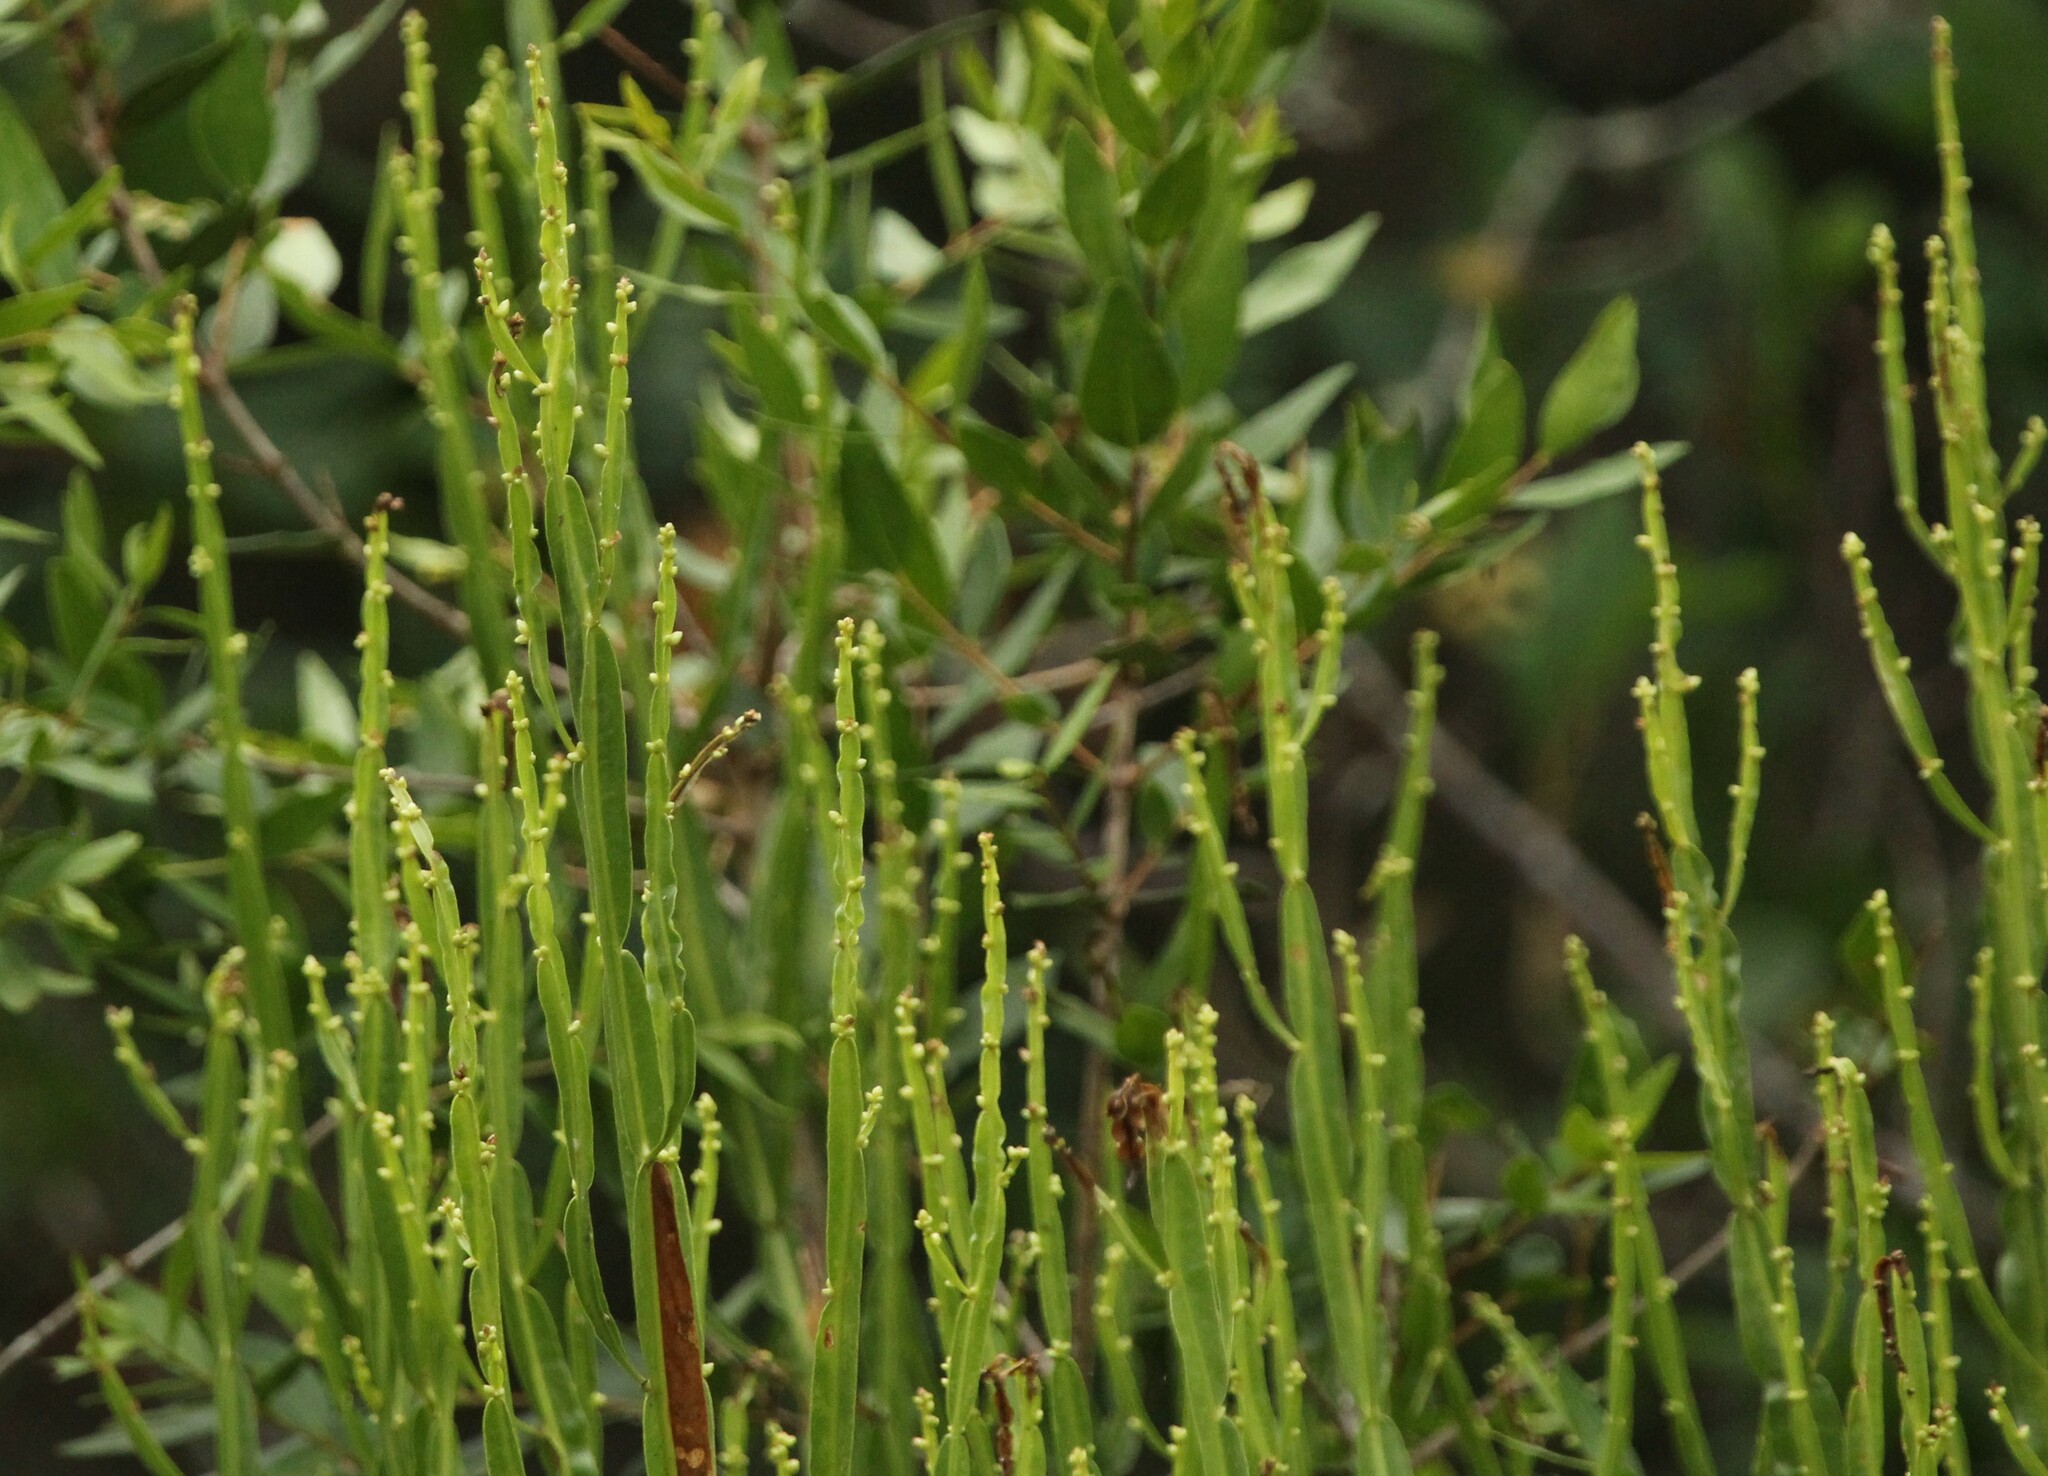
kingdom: Plantae
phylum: Tracheophyta
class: Magnoliopsida
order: Asterales
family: Asteraceae
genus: Baccharis
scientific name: Baccharis trimera
